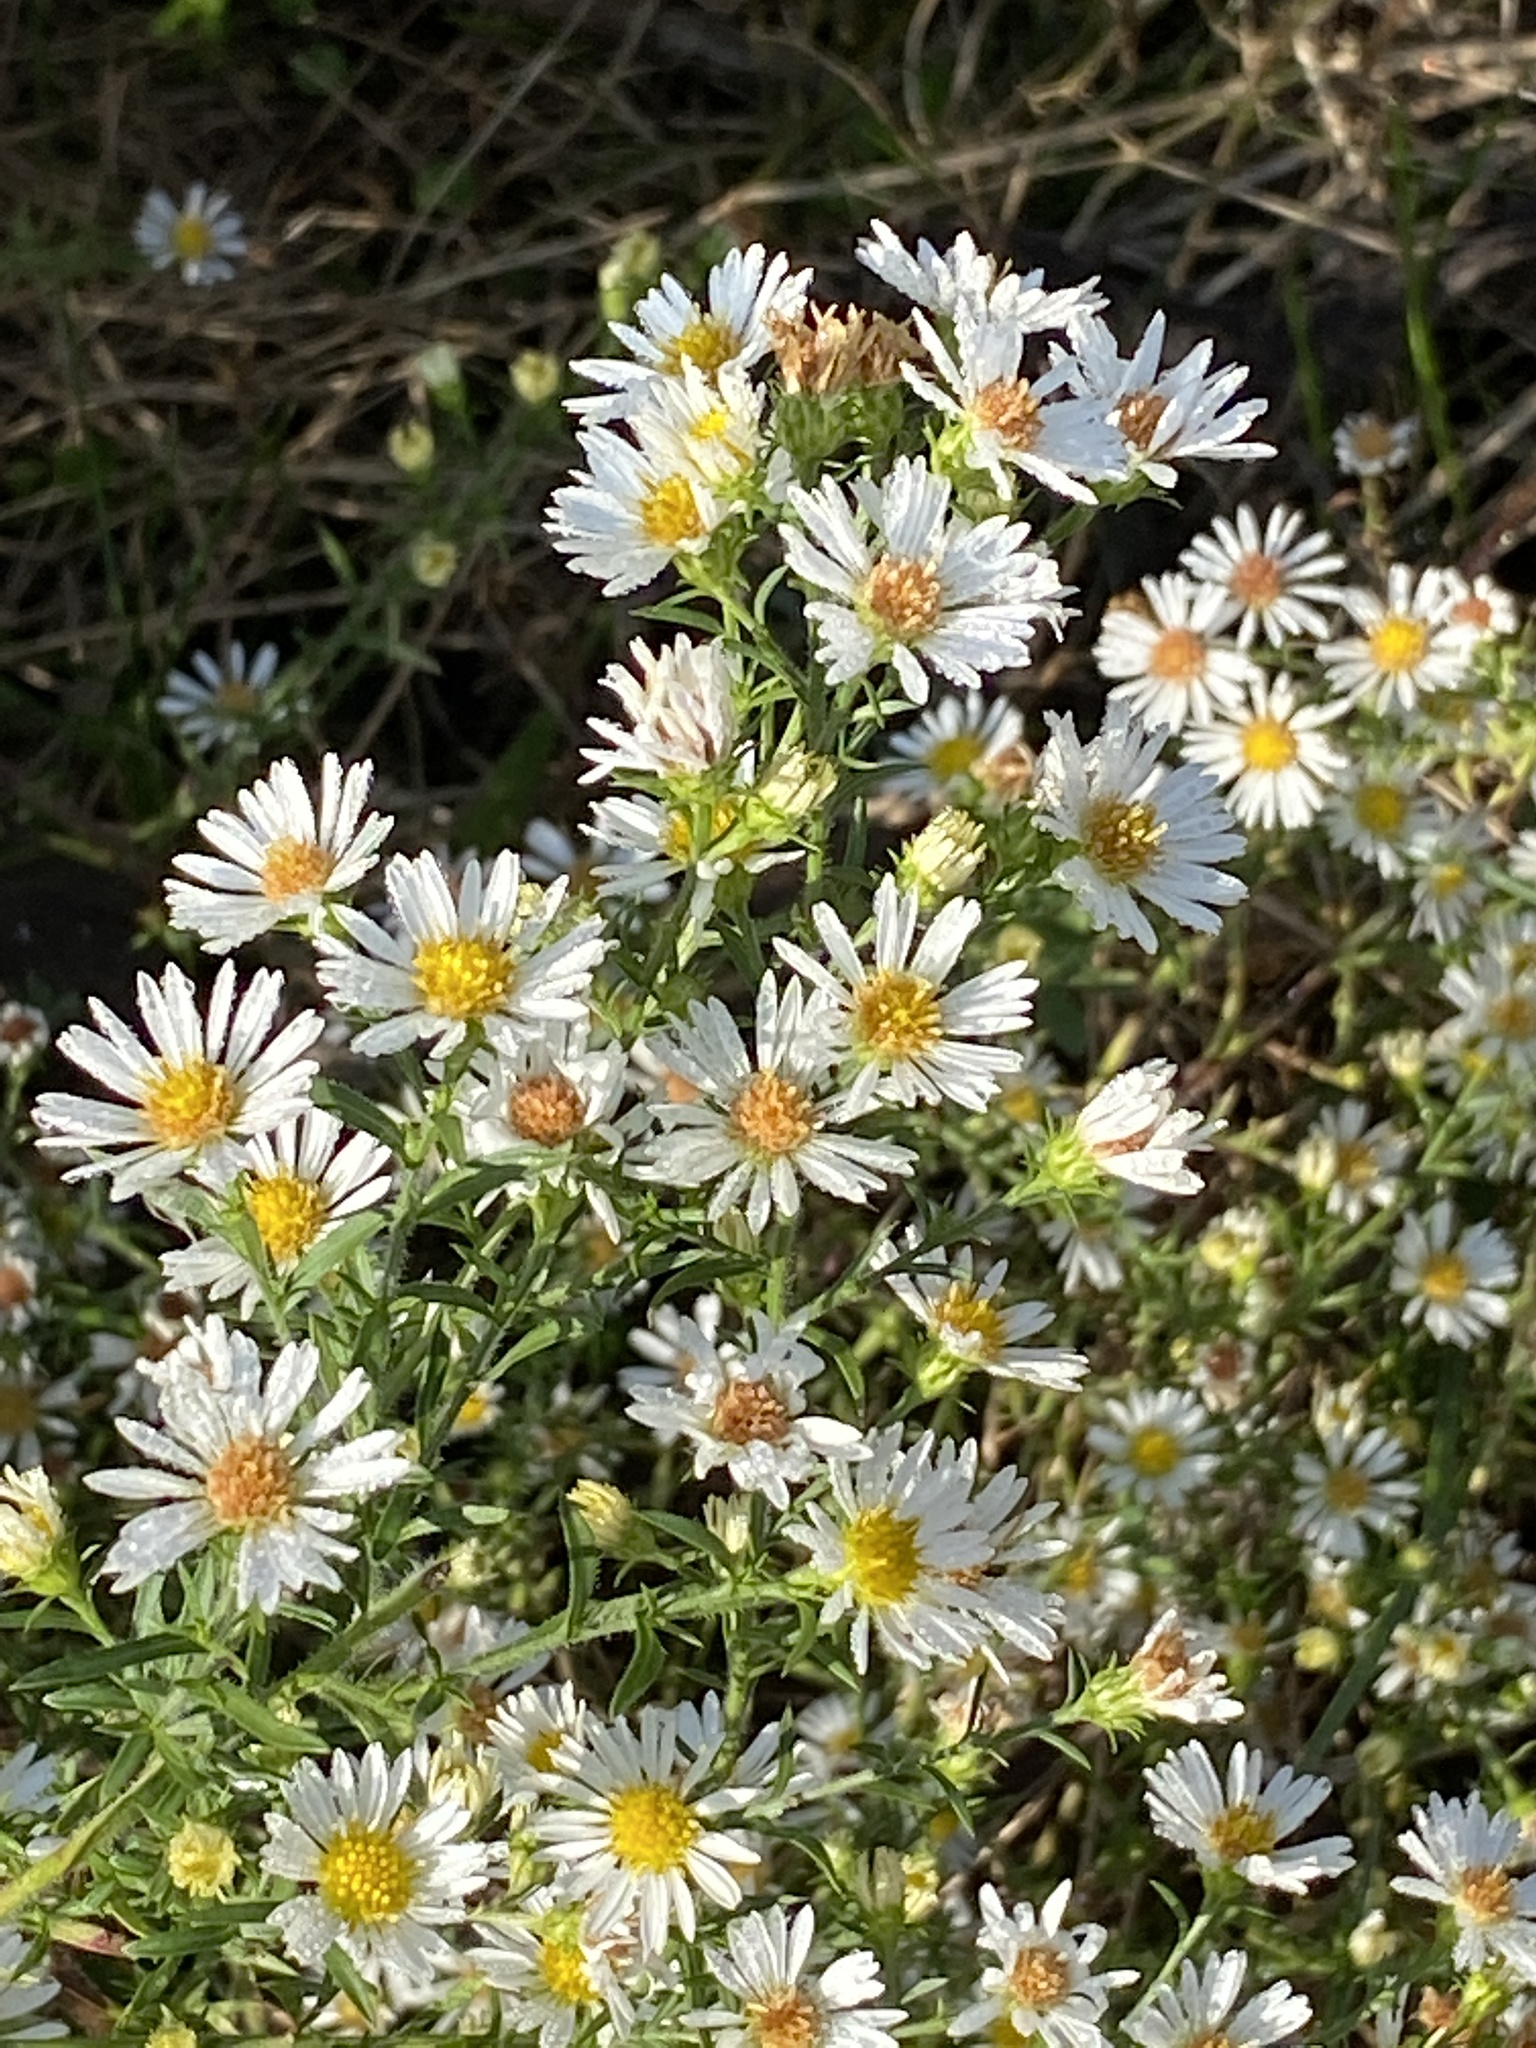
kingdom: Plantae
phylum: Tracheophyta
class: Magnoliopsida
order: Asterales
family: Asteraceae
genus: Symphyotrichum
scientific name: Symphyotrichum pilosum
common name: Awl aster
